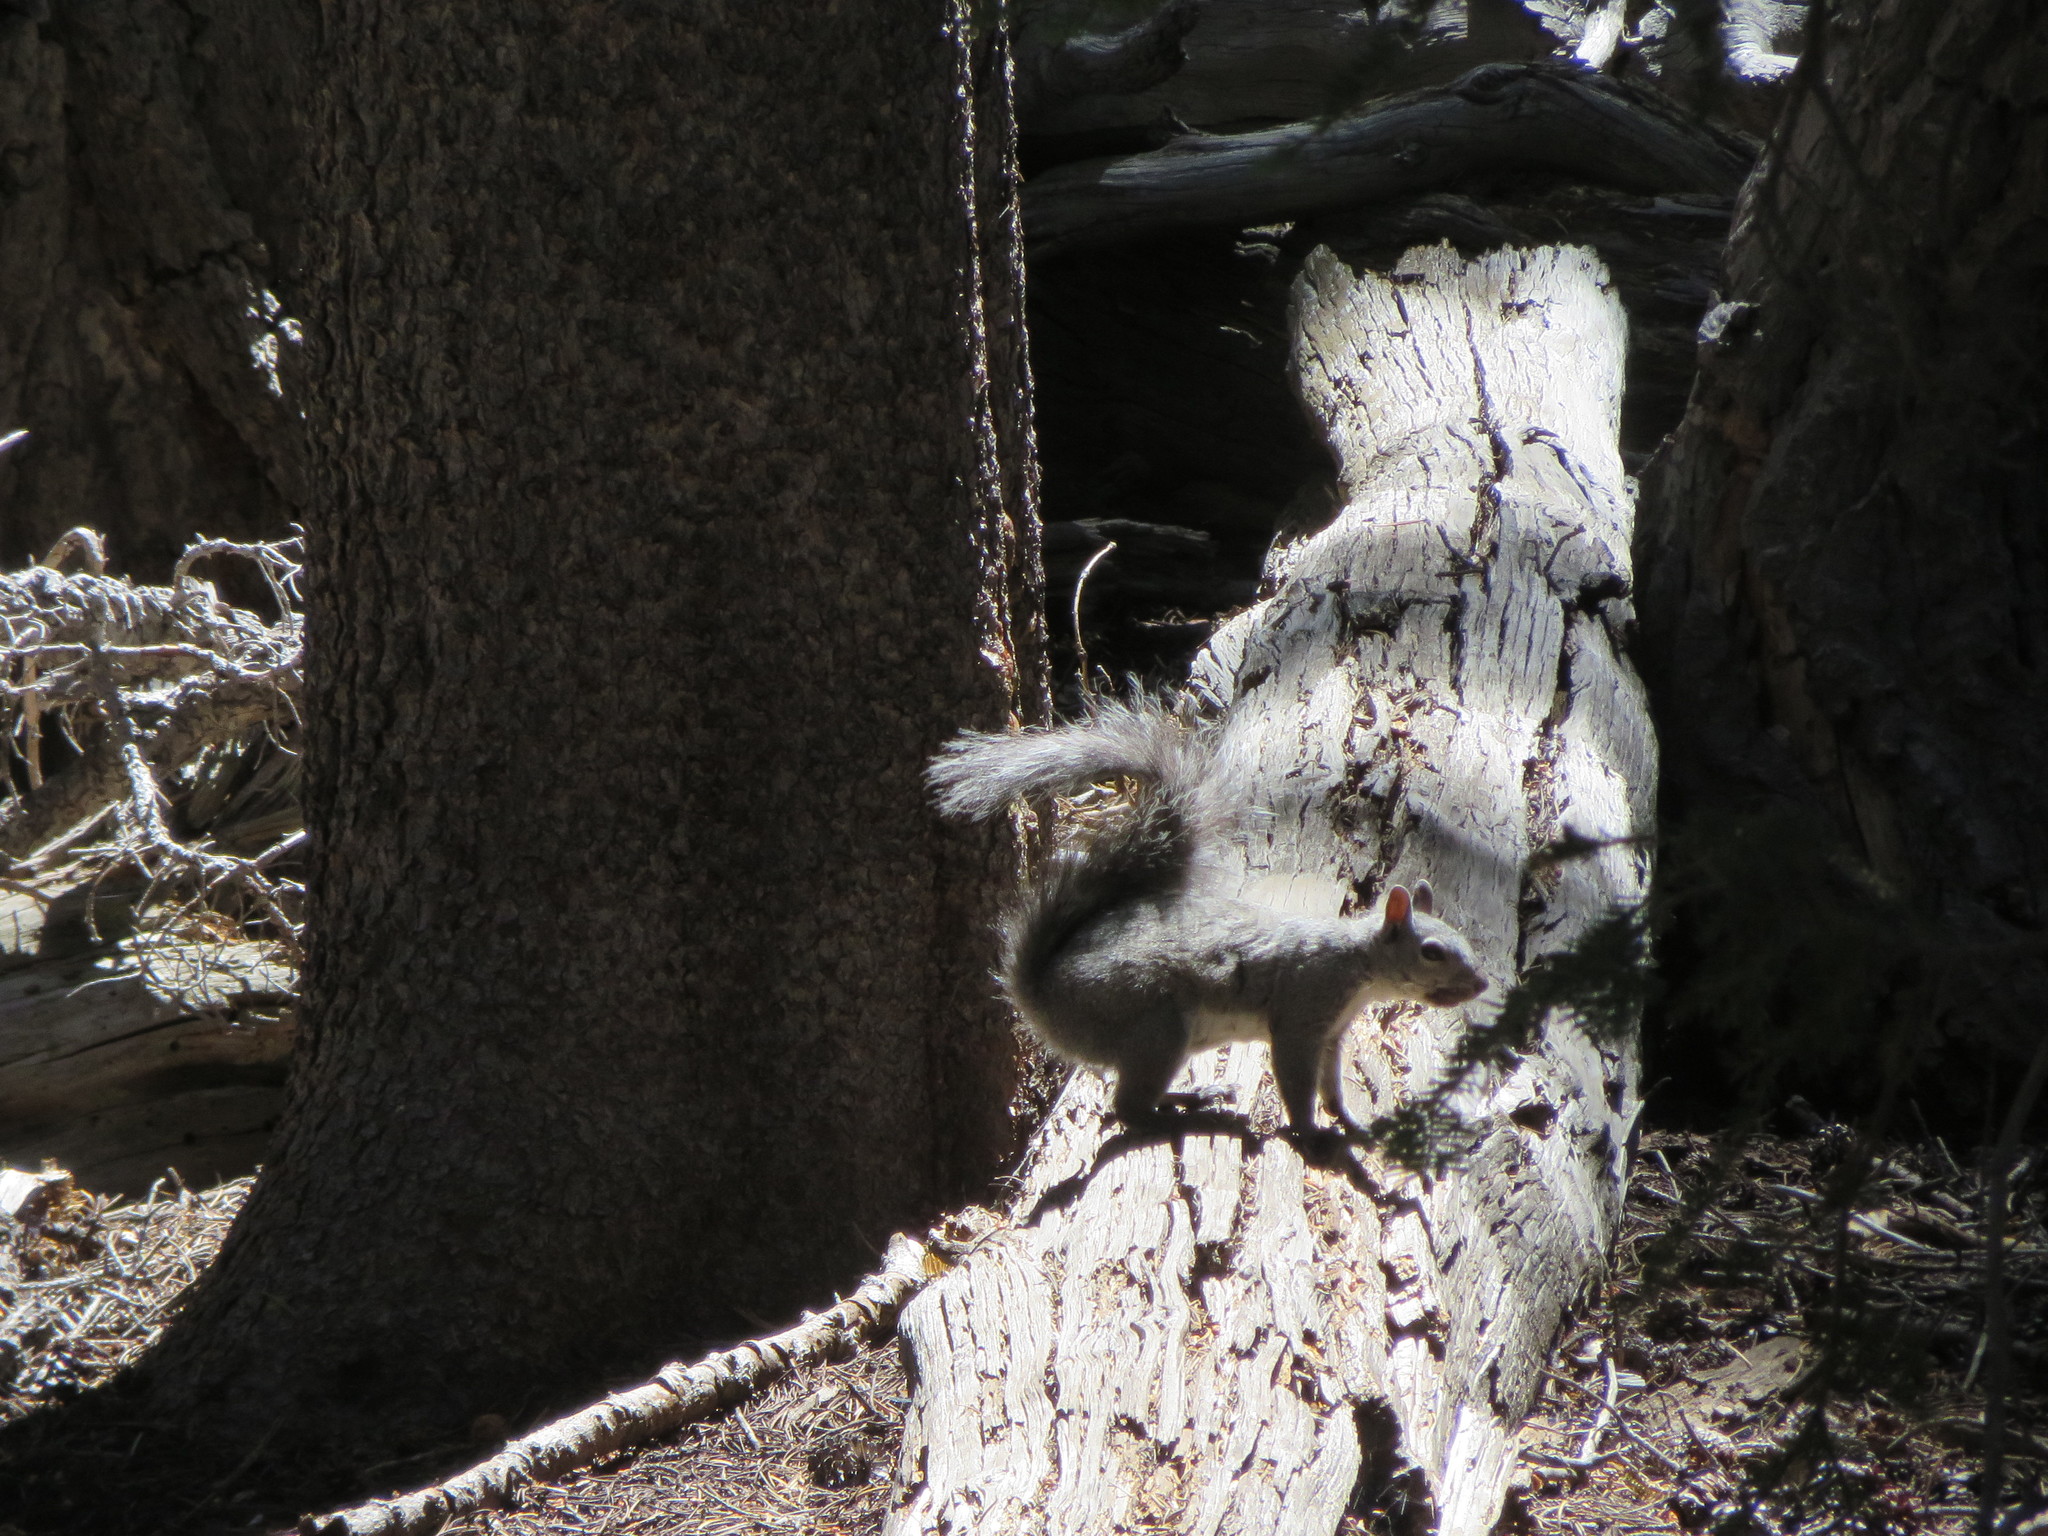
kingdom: Animalia
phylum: Chordata
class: Mammalia
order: Rodentia
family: Sciuridae
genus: Sciurus
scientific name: Sciurus griseus
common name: Western gray squirrel
